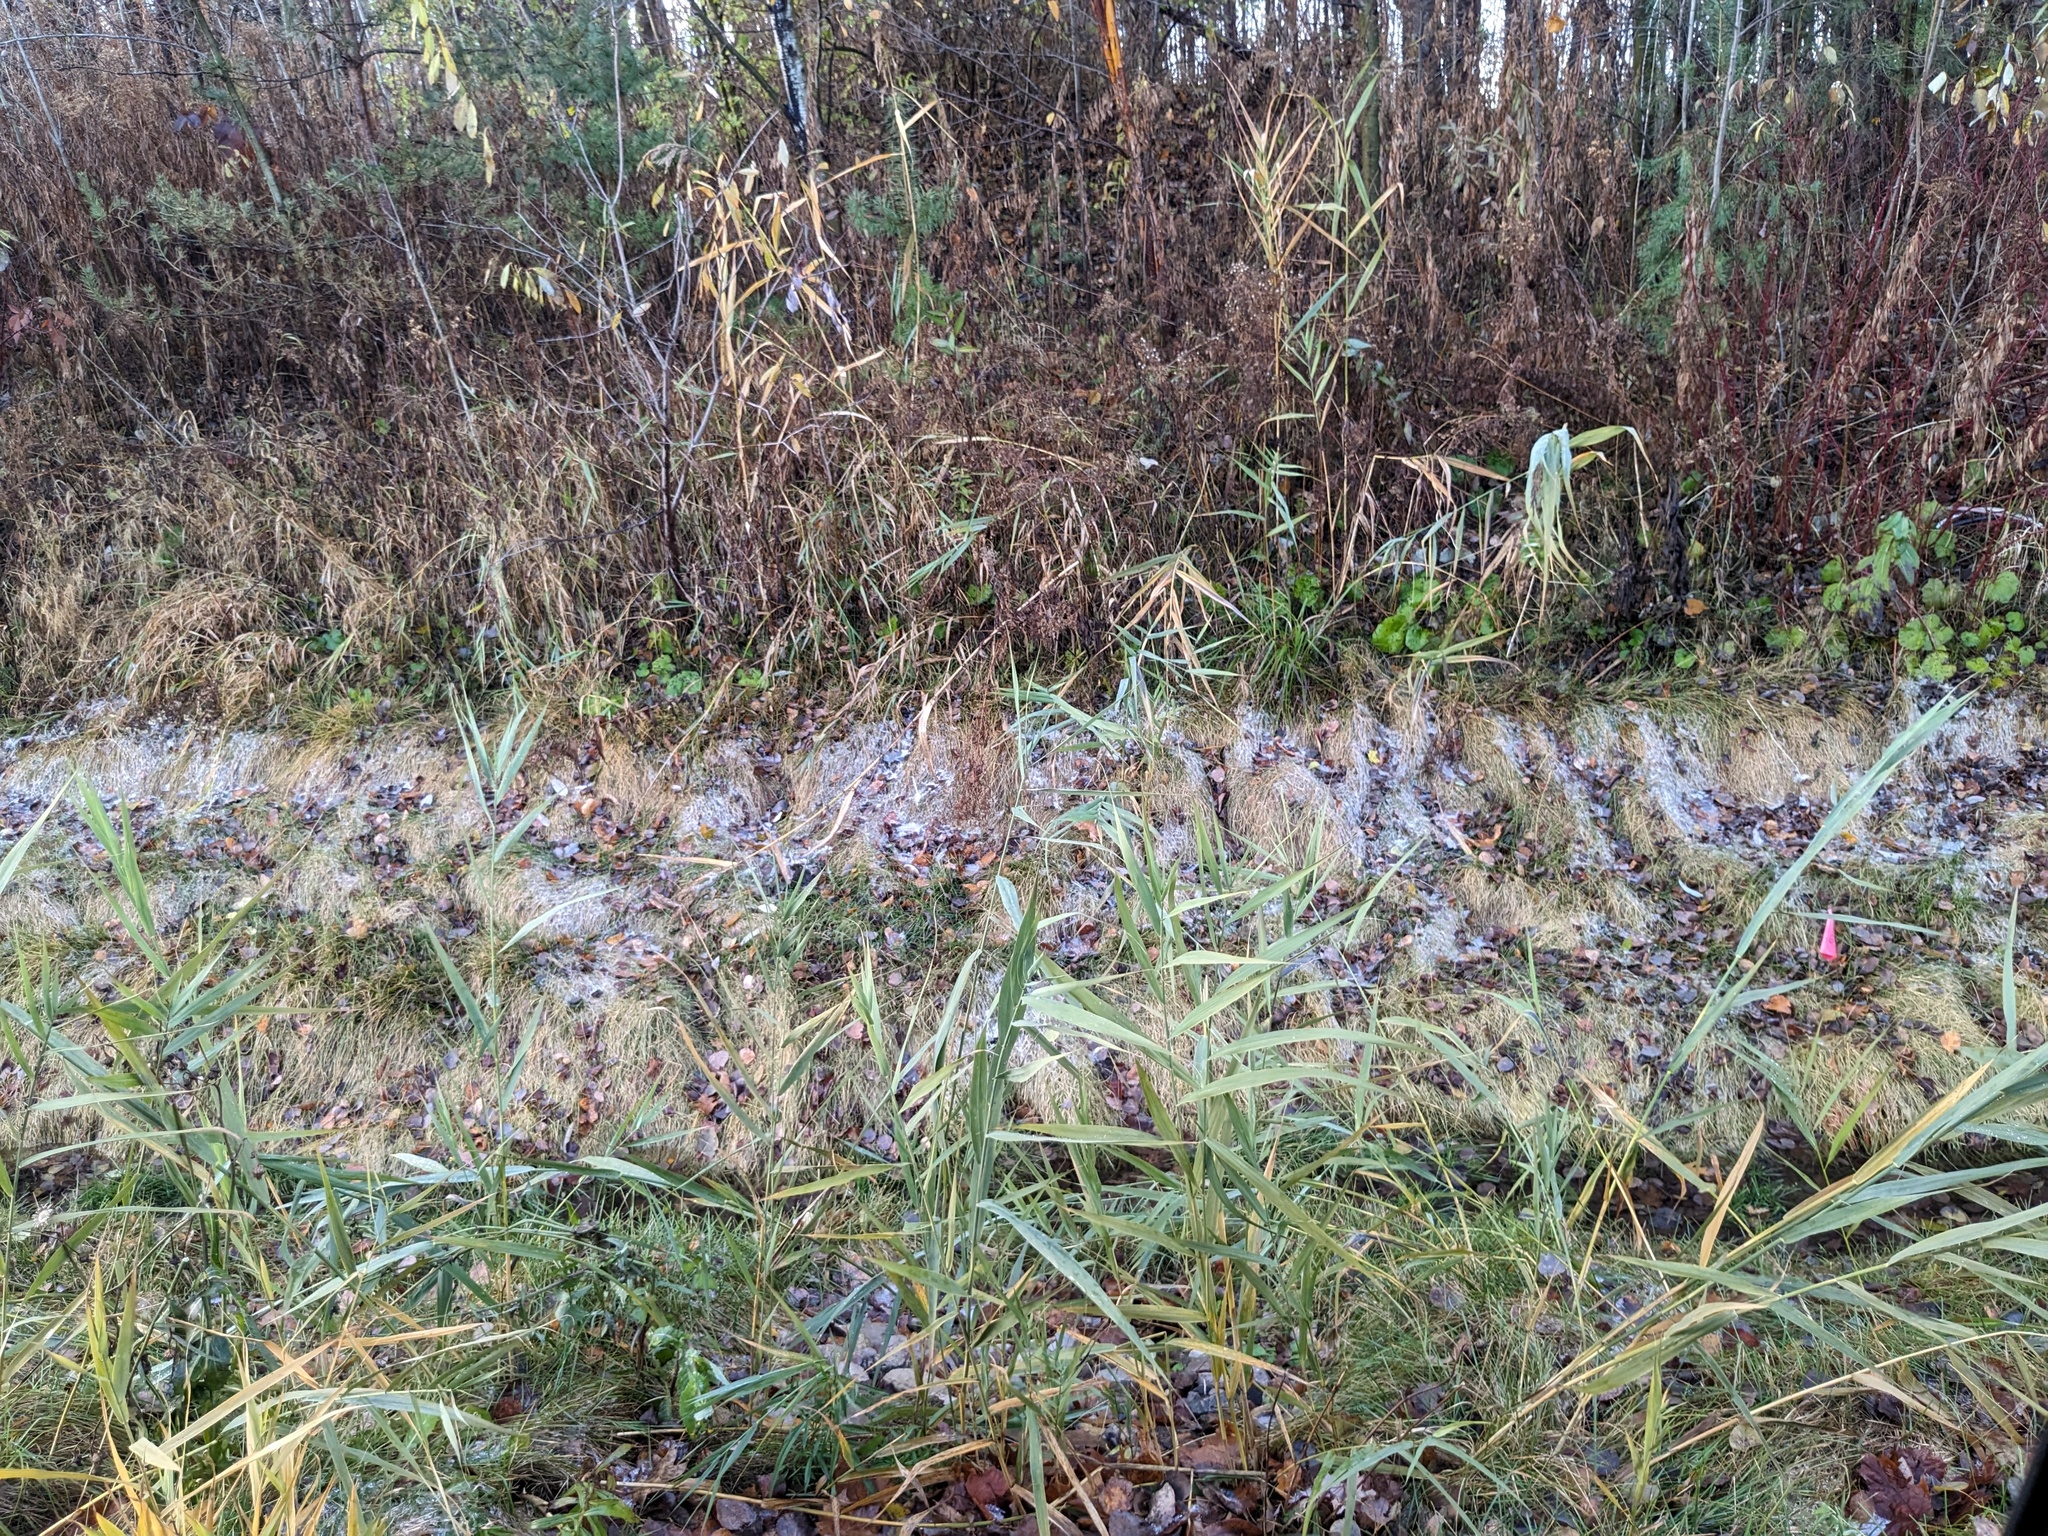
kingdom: Plantae
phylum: Tracheophyta
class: Liliopsida
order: Poales
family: Poaceae
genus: Phragmites
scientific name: Phragmites australis
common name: Common reed
